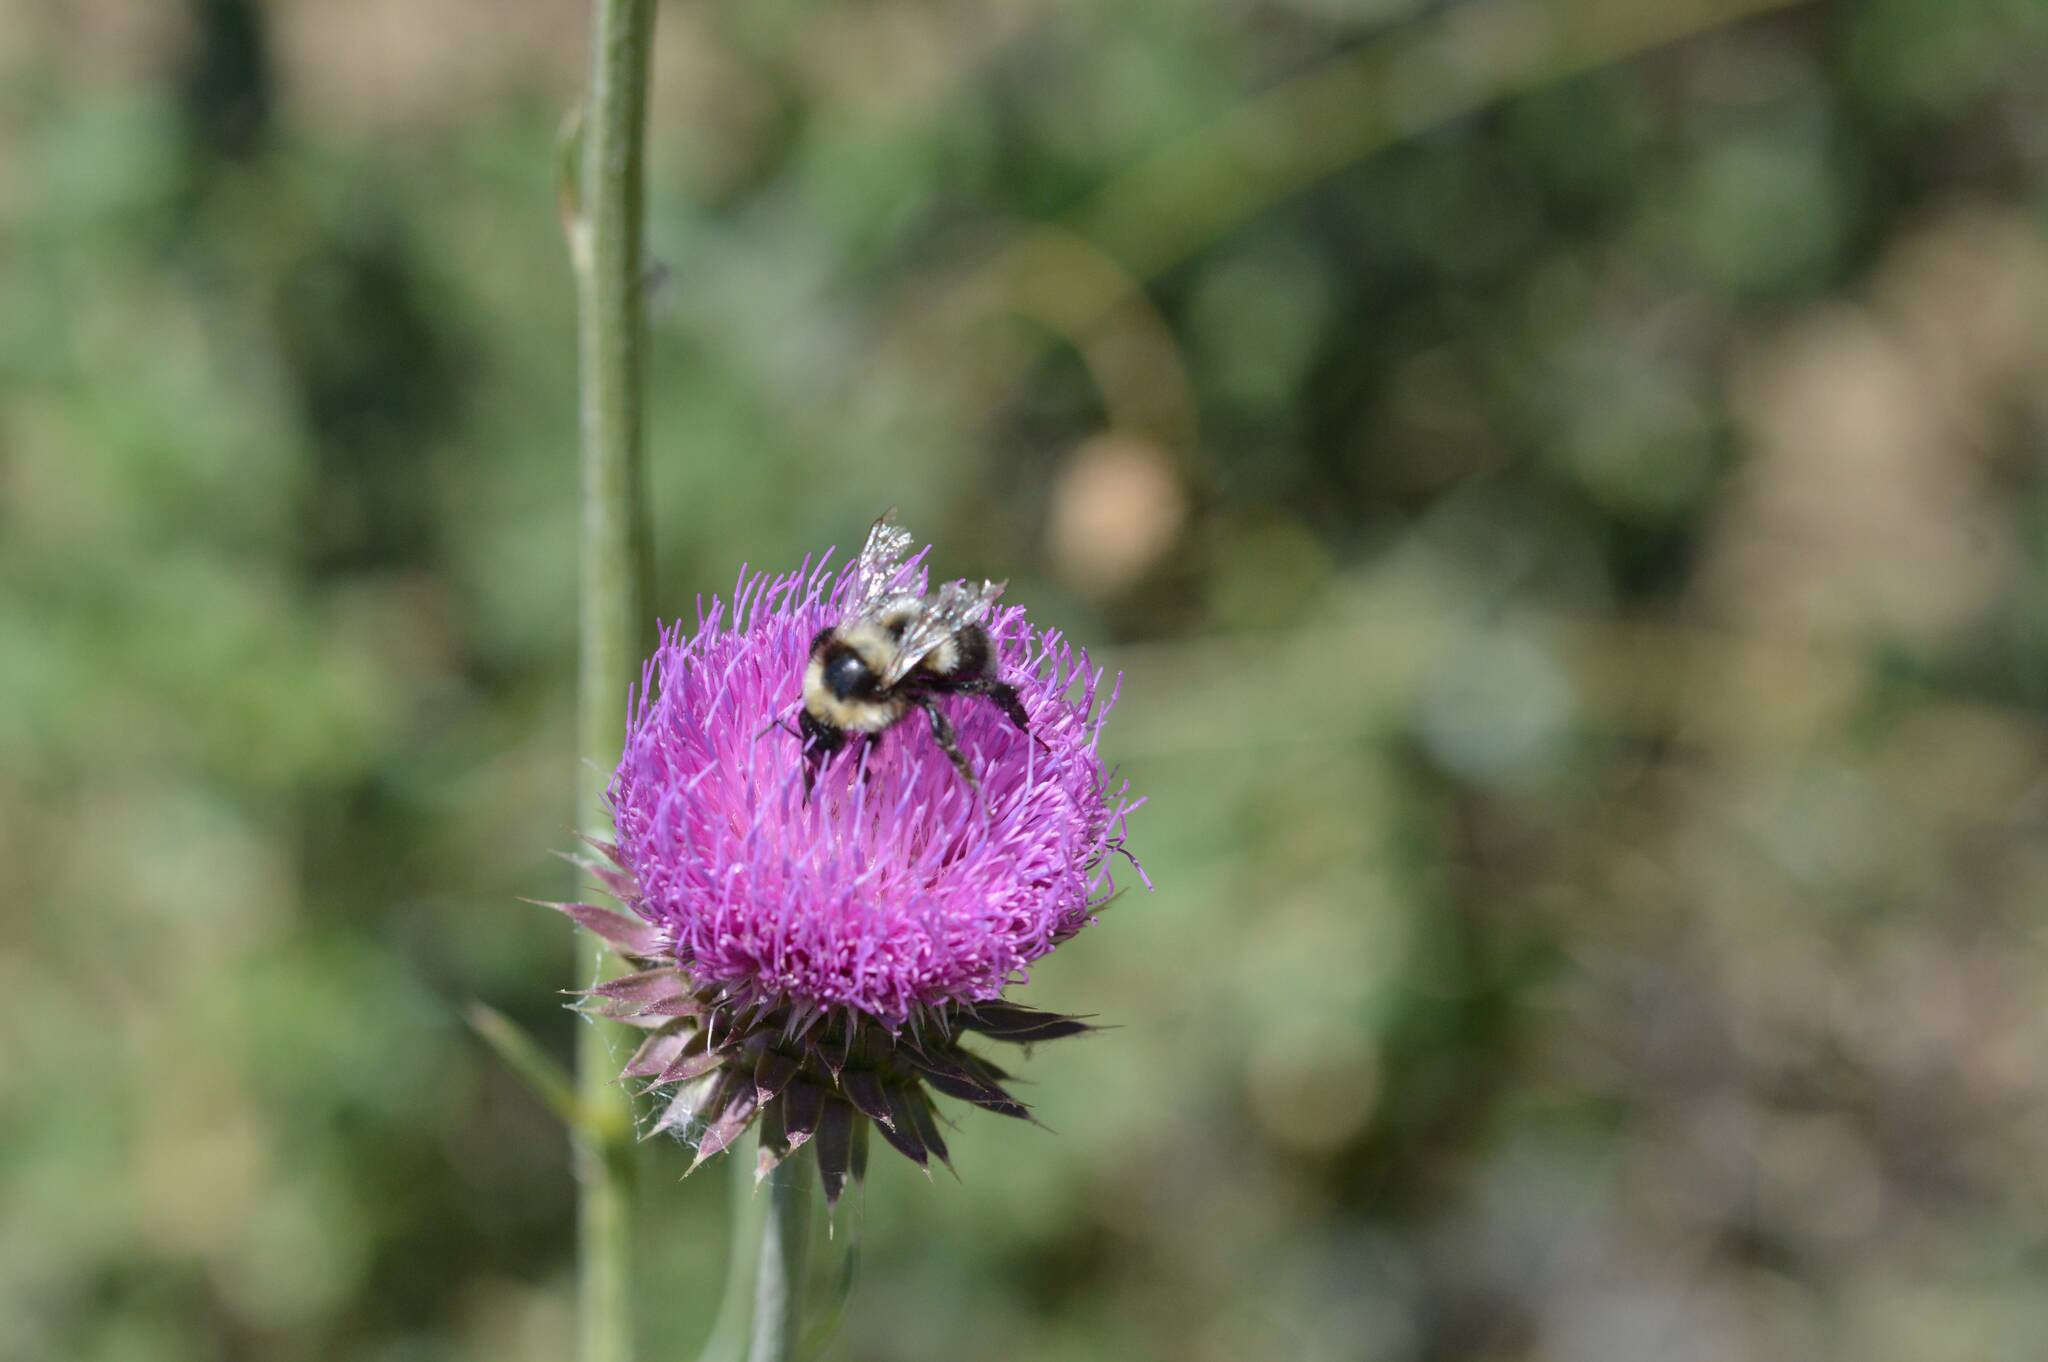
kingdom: Animalia
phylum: Arthropoda
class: Insecta
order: Hymenoptera
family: Apidae
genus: Bombus
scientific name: Bombus ruderatus
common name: Large garden bumblebee
